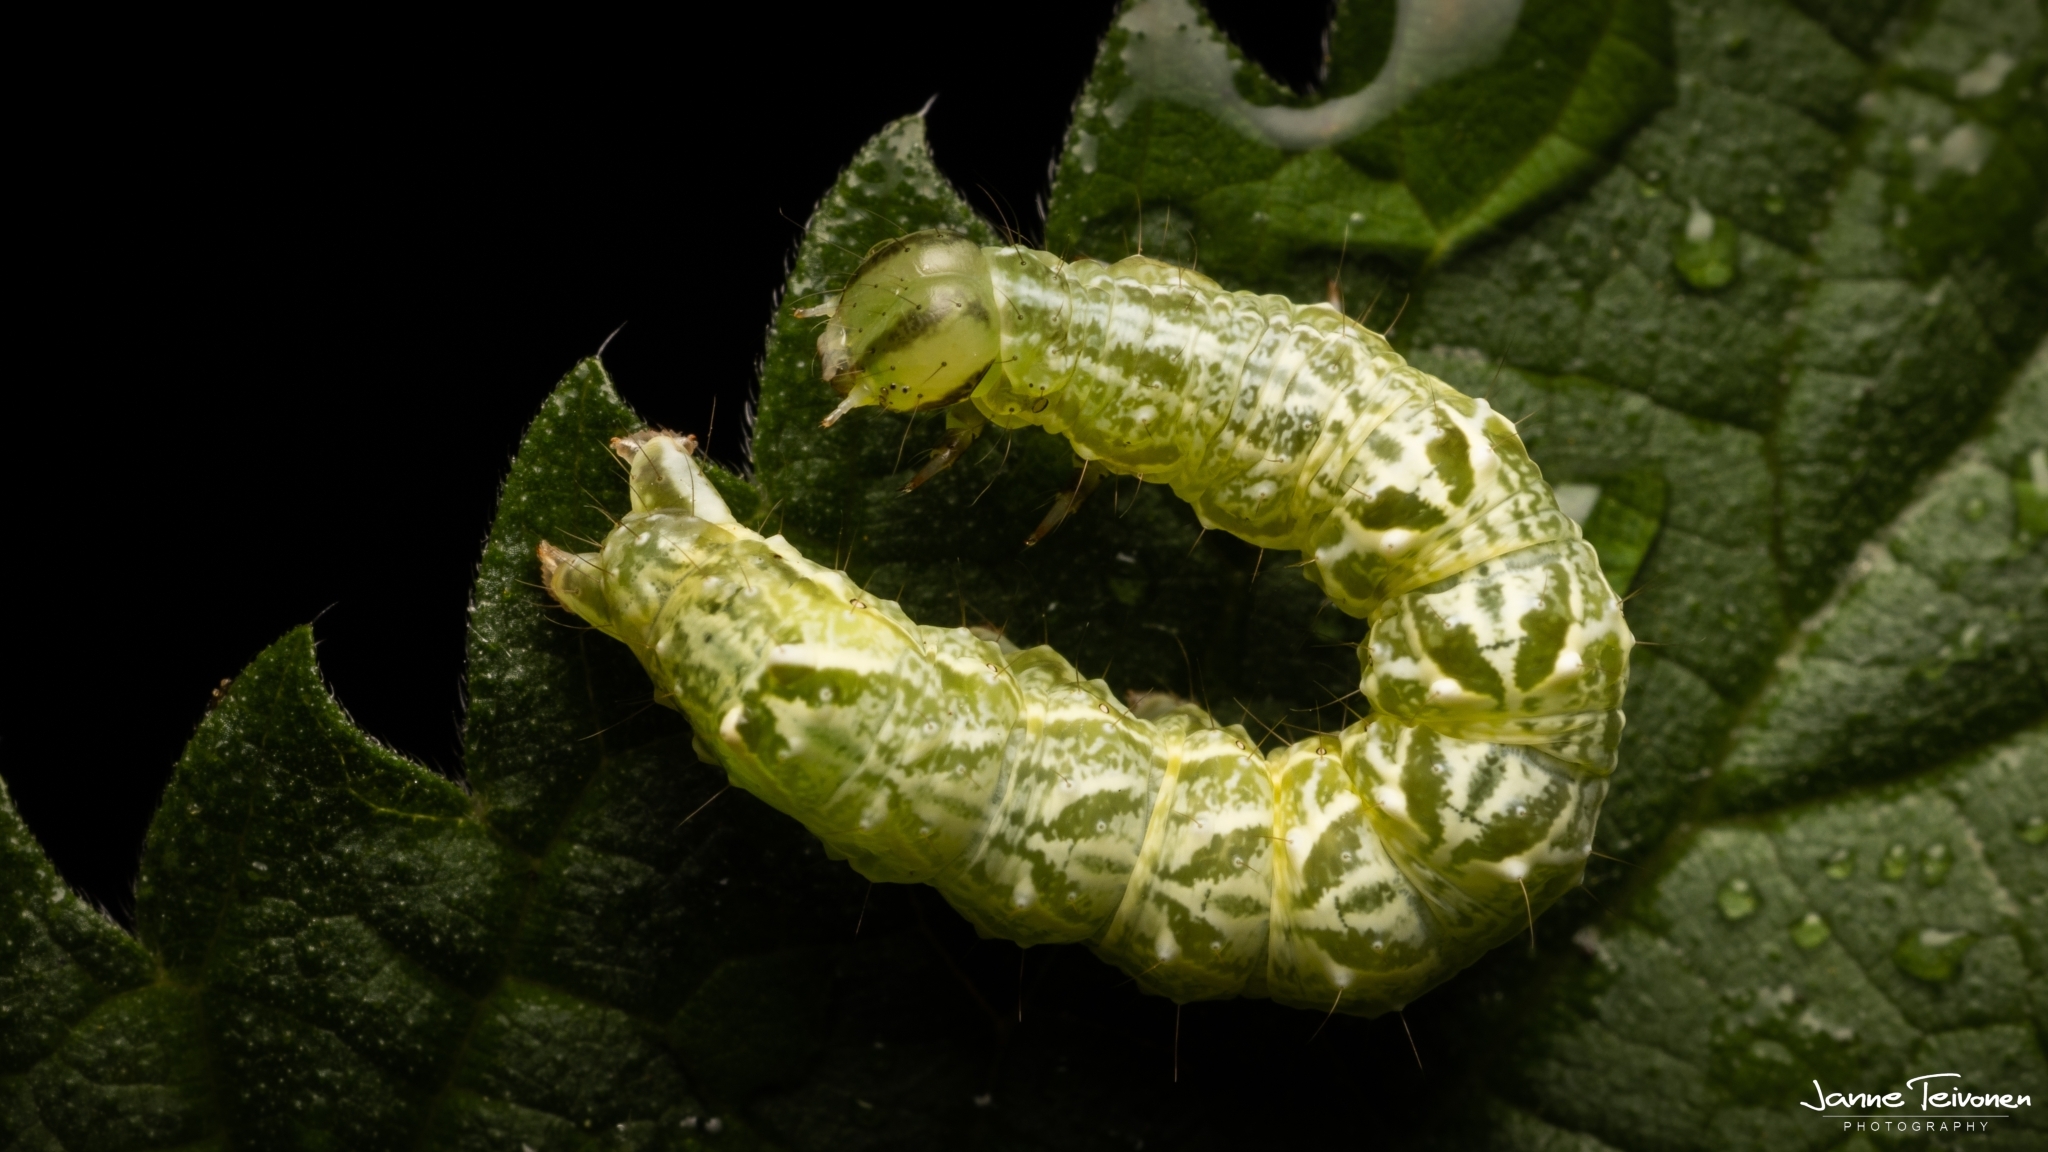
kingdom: Animalia
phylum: Arthropoda
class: Insecta
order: Lepidoptera
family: Noctuidae
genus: Abrostola
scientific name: Abrostola tripartita
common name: Spectacle
